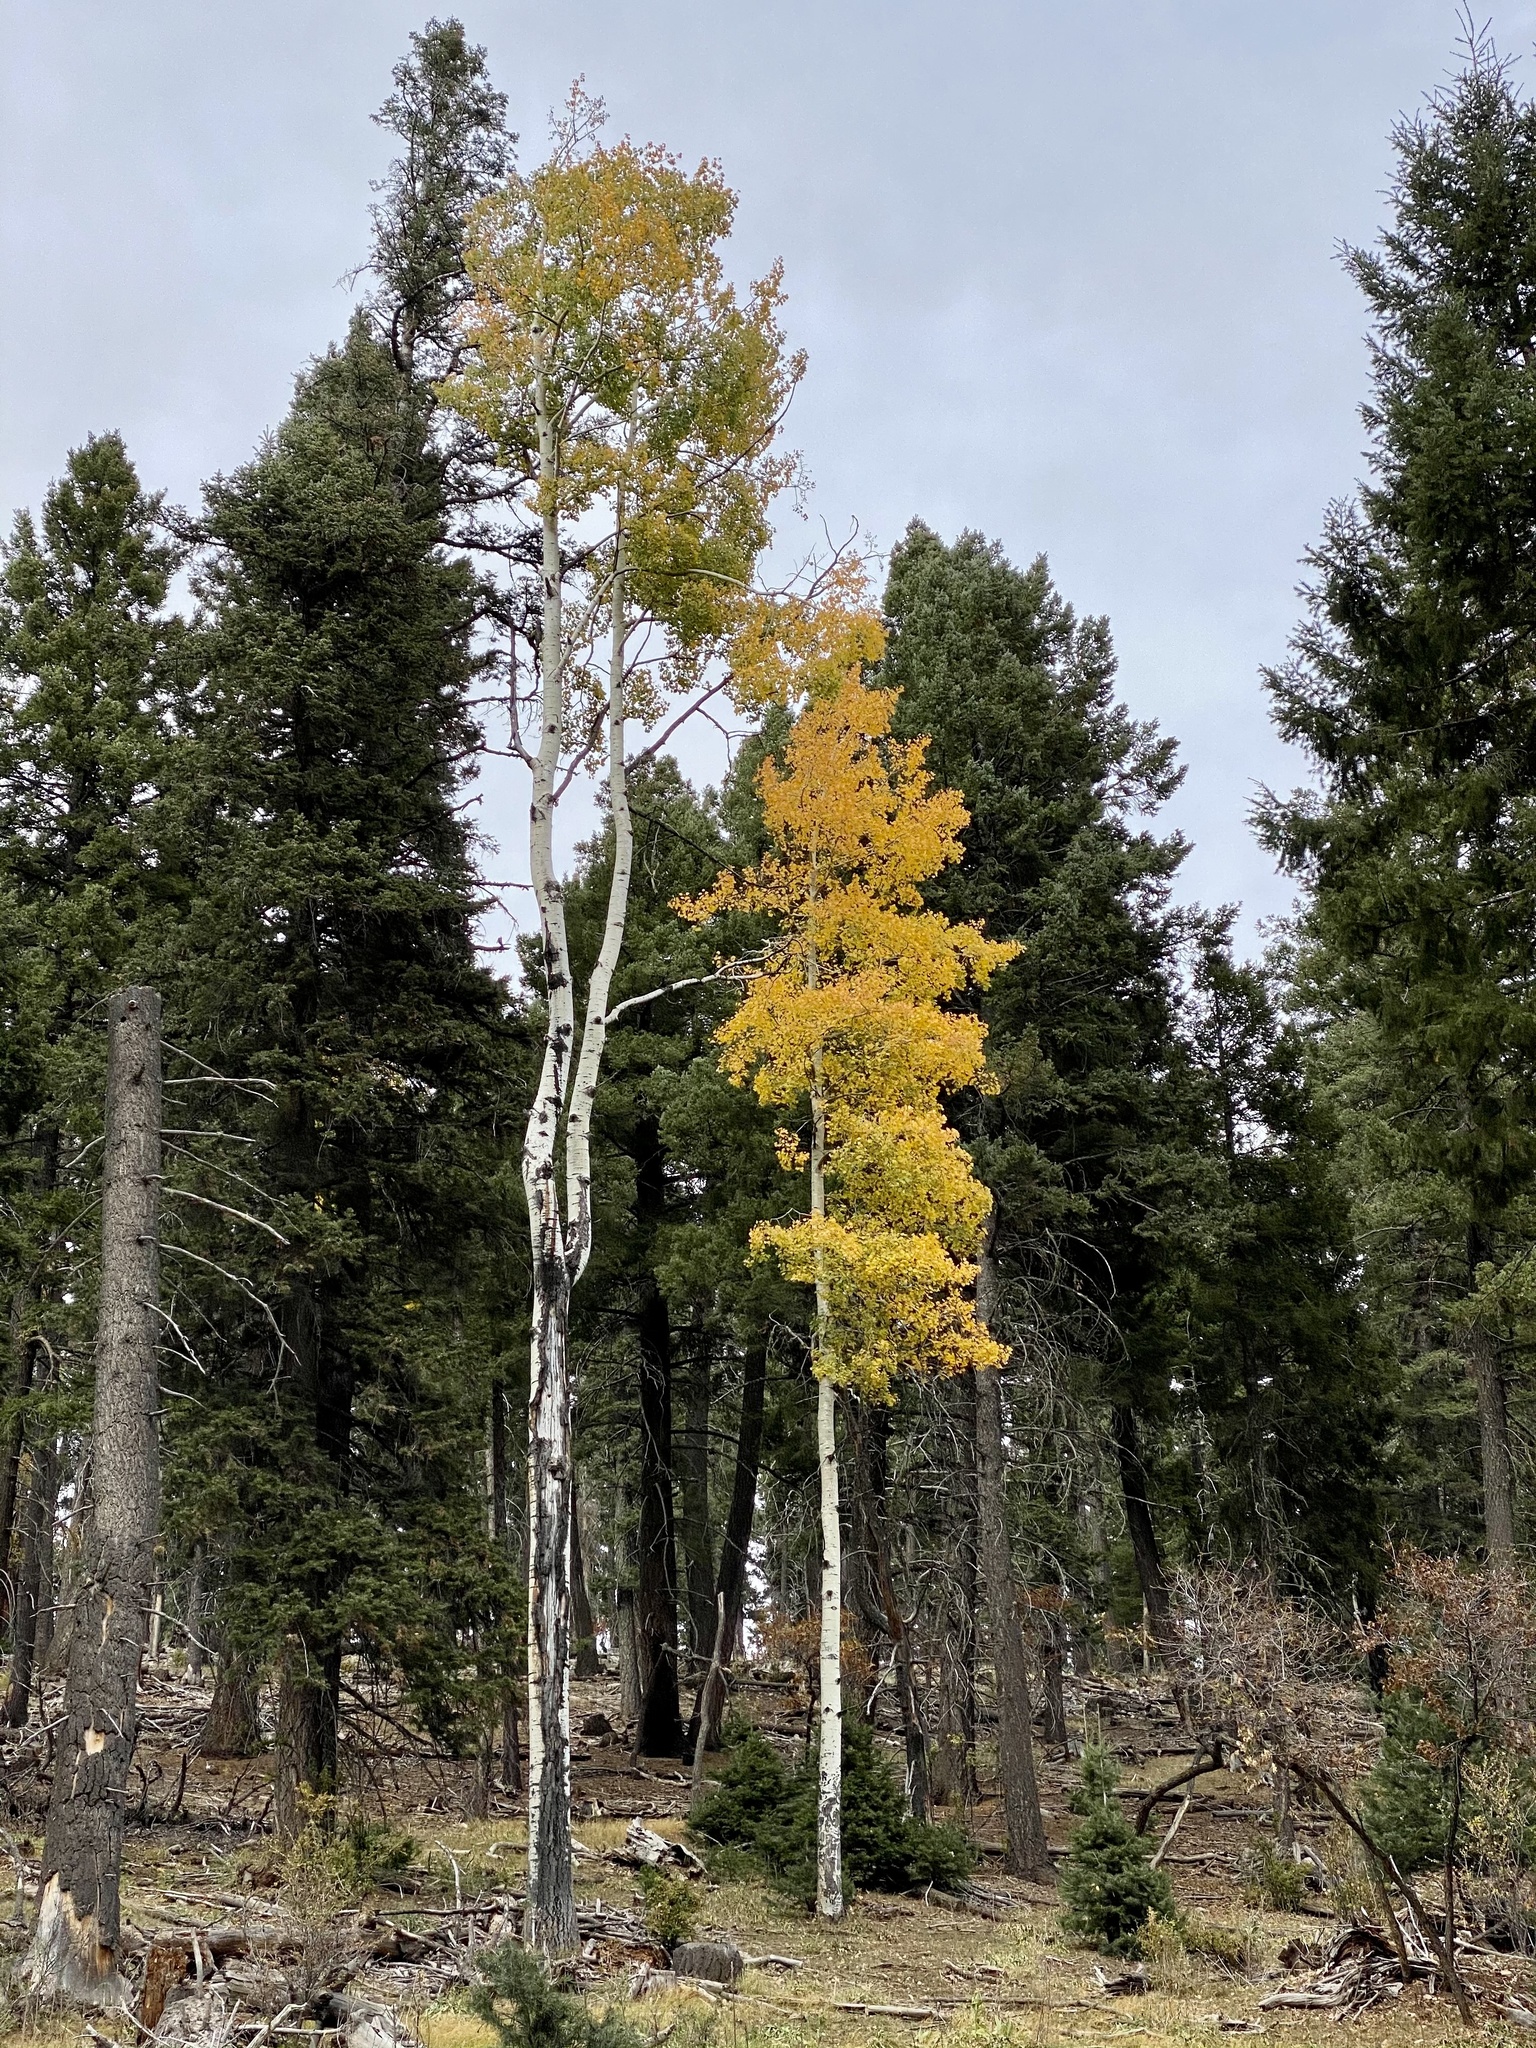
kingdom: Plantae
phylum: Tracheophyta
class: Magnoliopsida
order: Malpighiales
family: Salicaceae
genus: Populus
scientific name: Populus tremuloides
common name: Quaking aspen
